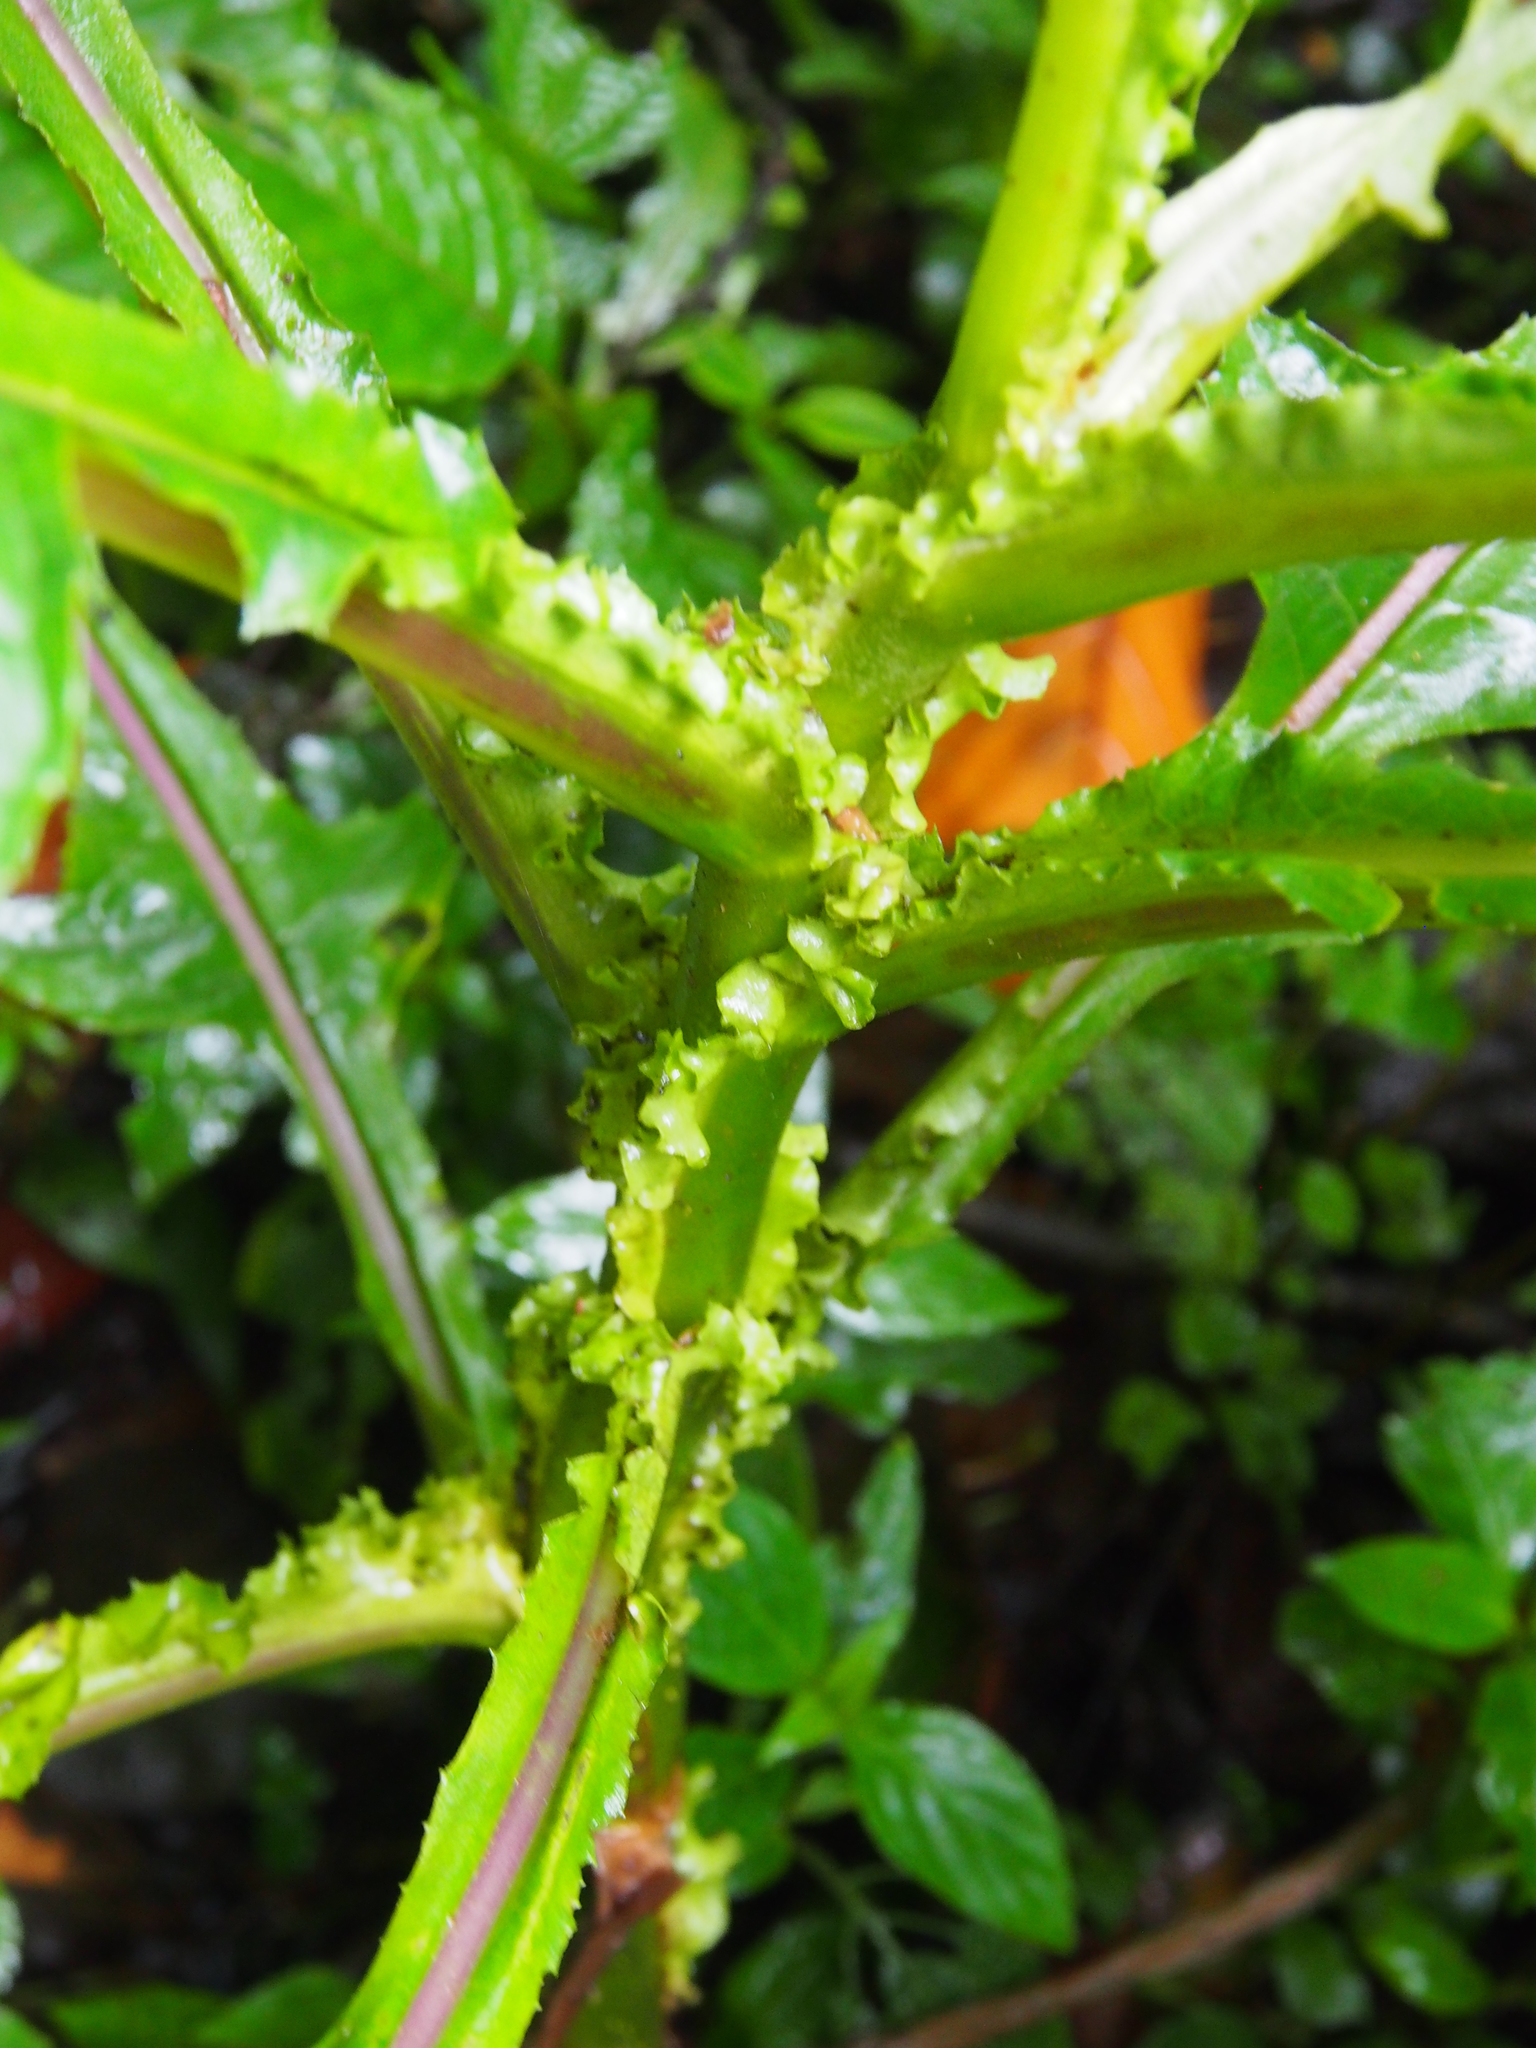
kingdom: Plantae
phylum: Tracheophyta
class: Magnoliopsida
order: Asterales
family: Asteraceae
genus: Jessea
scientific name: Jessea cooperi
